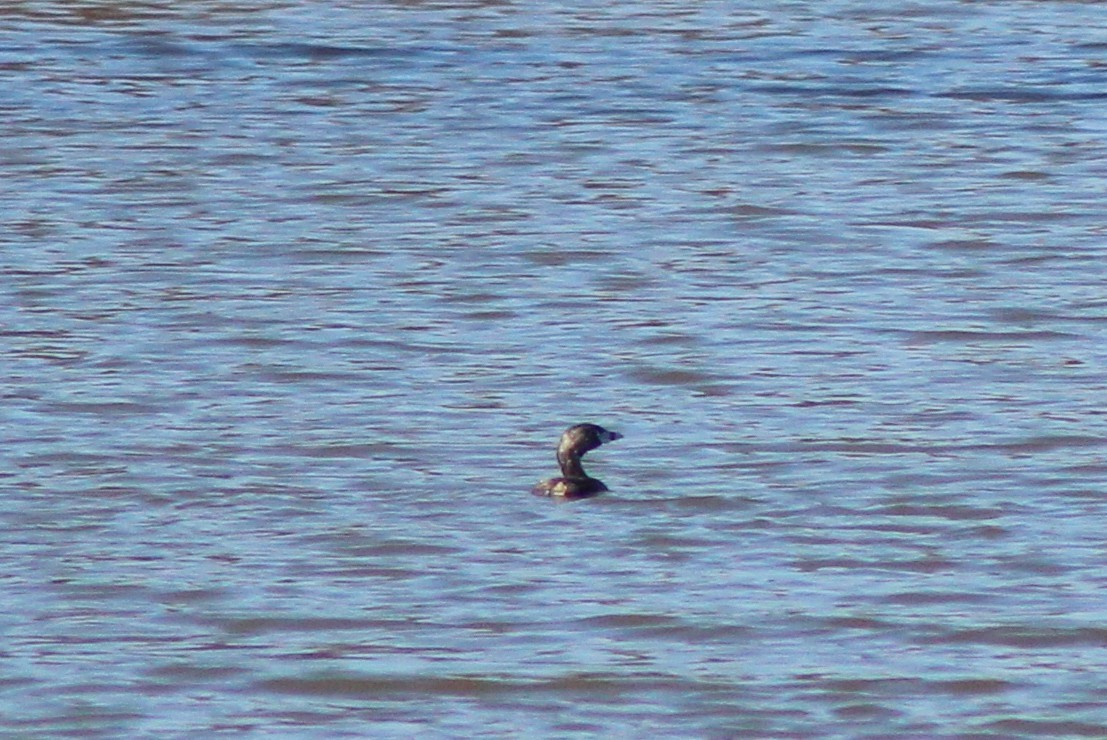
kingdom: Animalia
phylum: Chordata
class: Aves
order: Podicipediformes
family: Podicipedidae
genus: Podilymbus
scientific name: Podilymbus podiceps
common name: Pied-billed grebe
